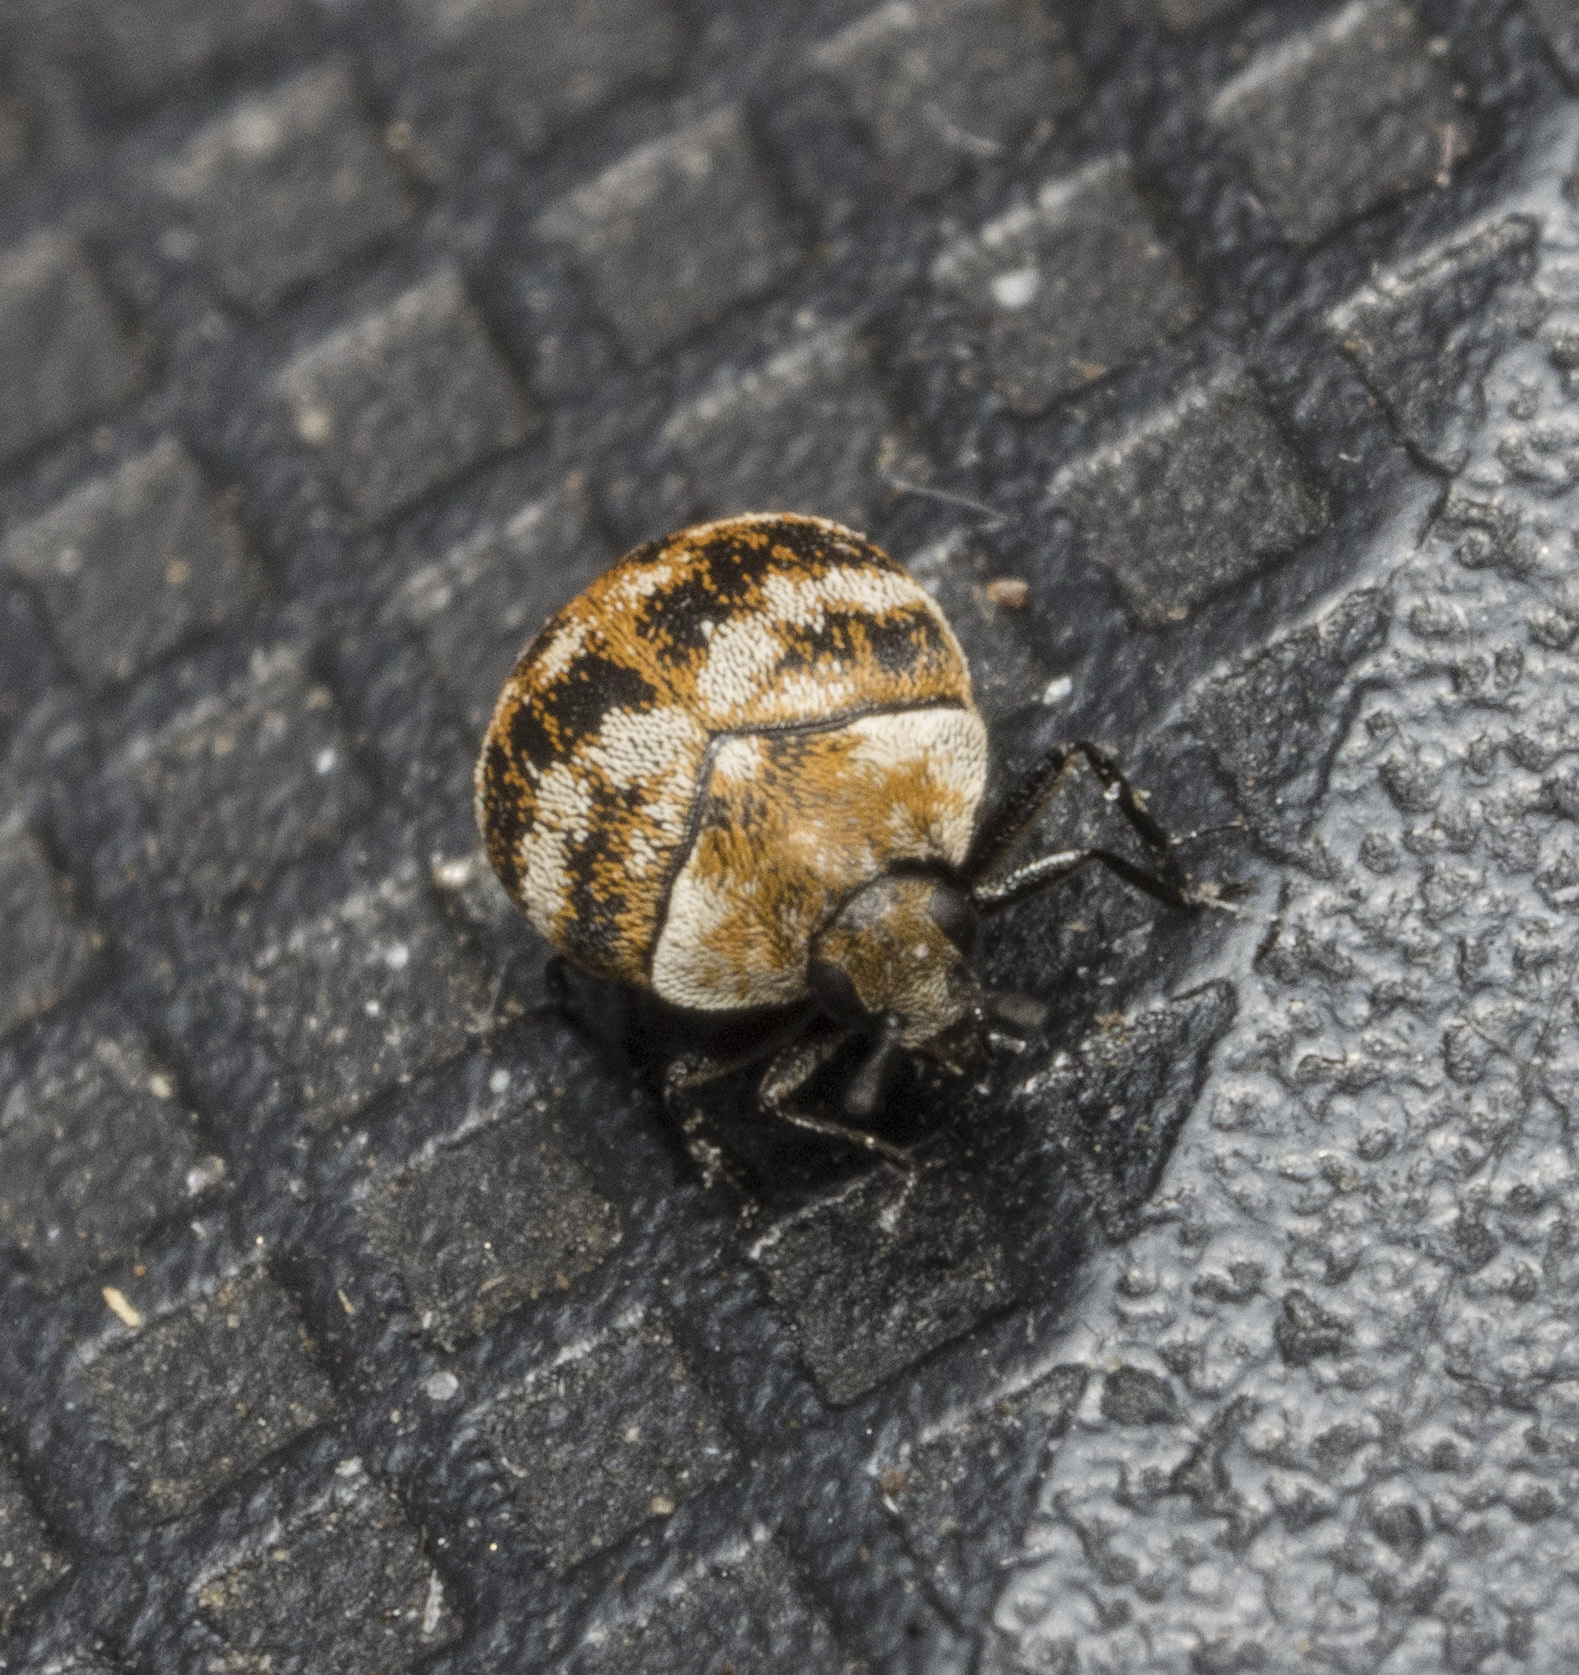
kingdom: Animalia
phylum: Arthropoda
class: Insecta
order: Coleoptera
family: Dermestidae
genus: Anthrenus
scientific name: Anthrenus verbasci
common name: Varied carpet beetle
